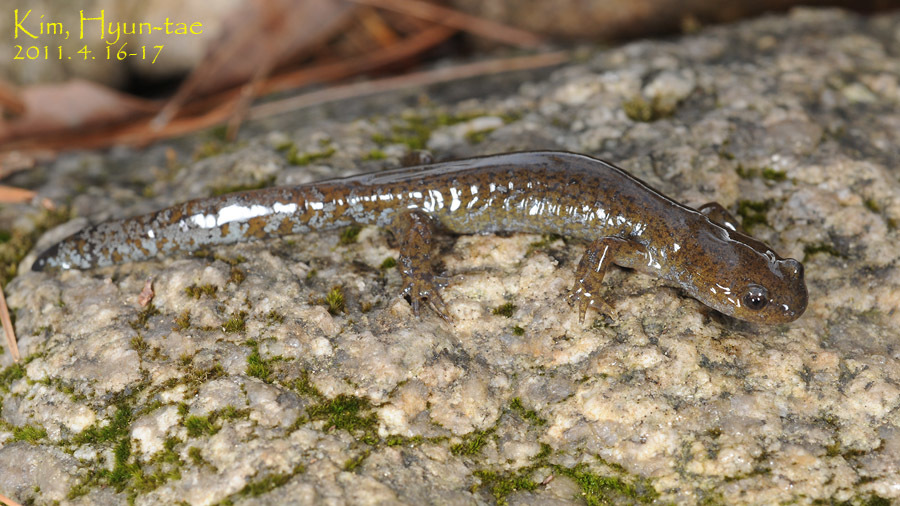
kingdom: Animalia
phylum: Chordata
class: Amphibia
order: Caudata
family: Hynobiidae
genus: Hynobius
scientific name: Hynobius quelpaertensis
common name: Cheju salamander
